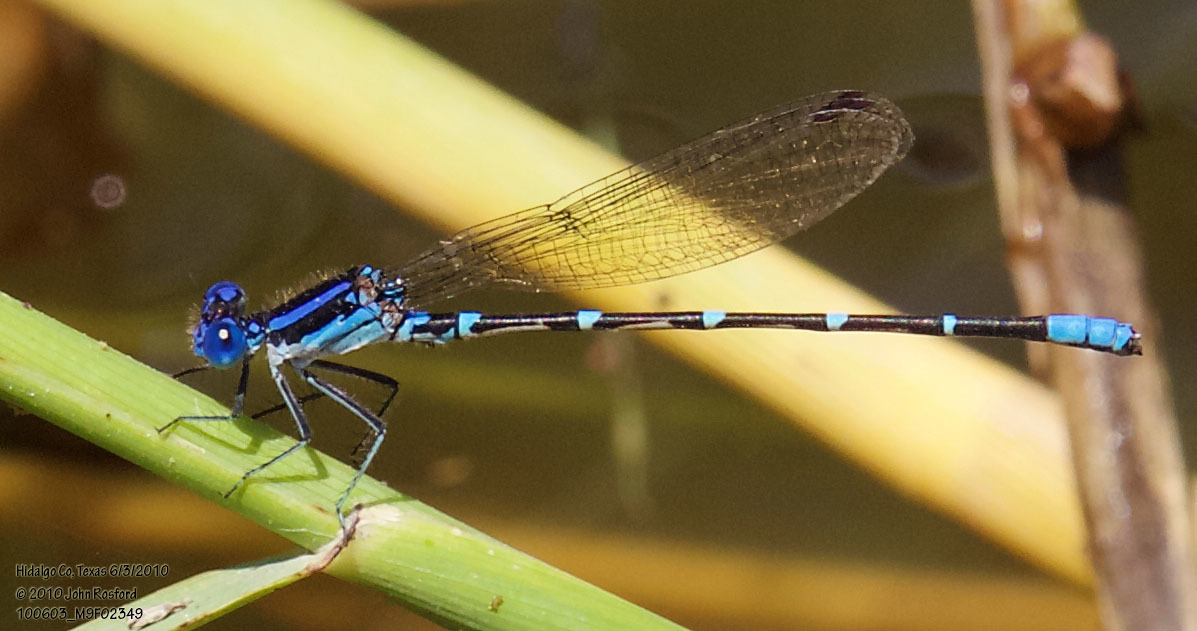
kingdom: Animalia
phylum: Arthropoda
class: Insecta
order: Odonata
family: Coenagrionidae
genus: Argia
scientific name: Argia sedula
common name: Blue-ringed dancer
